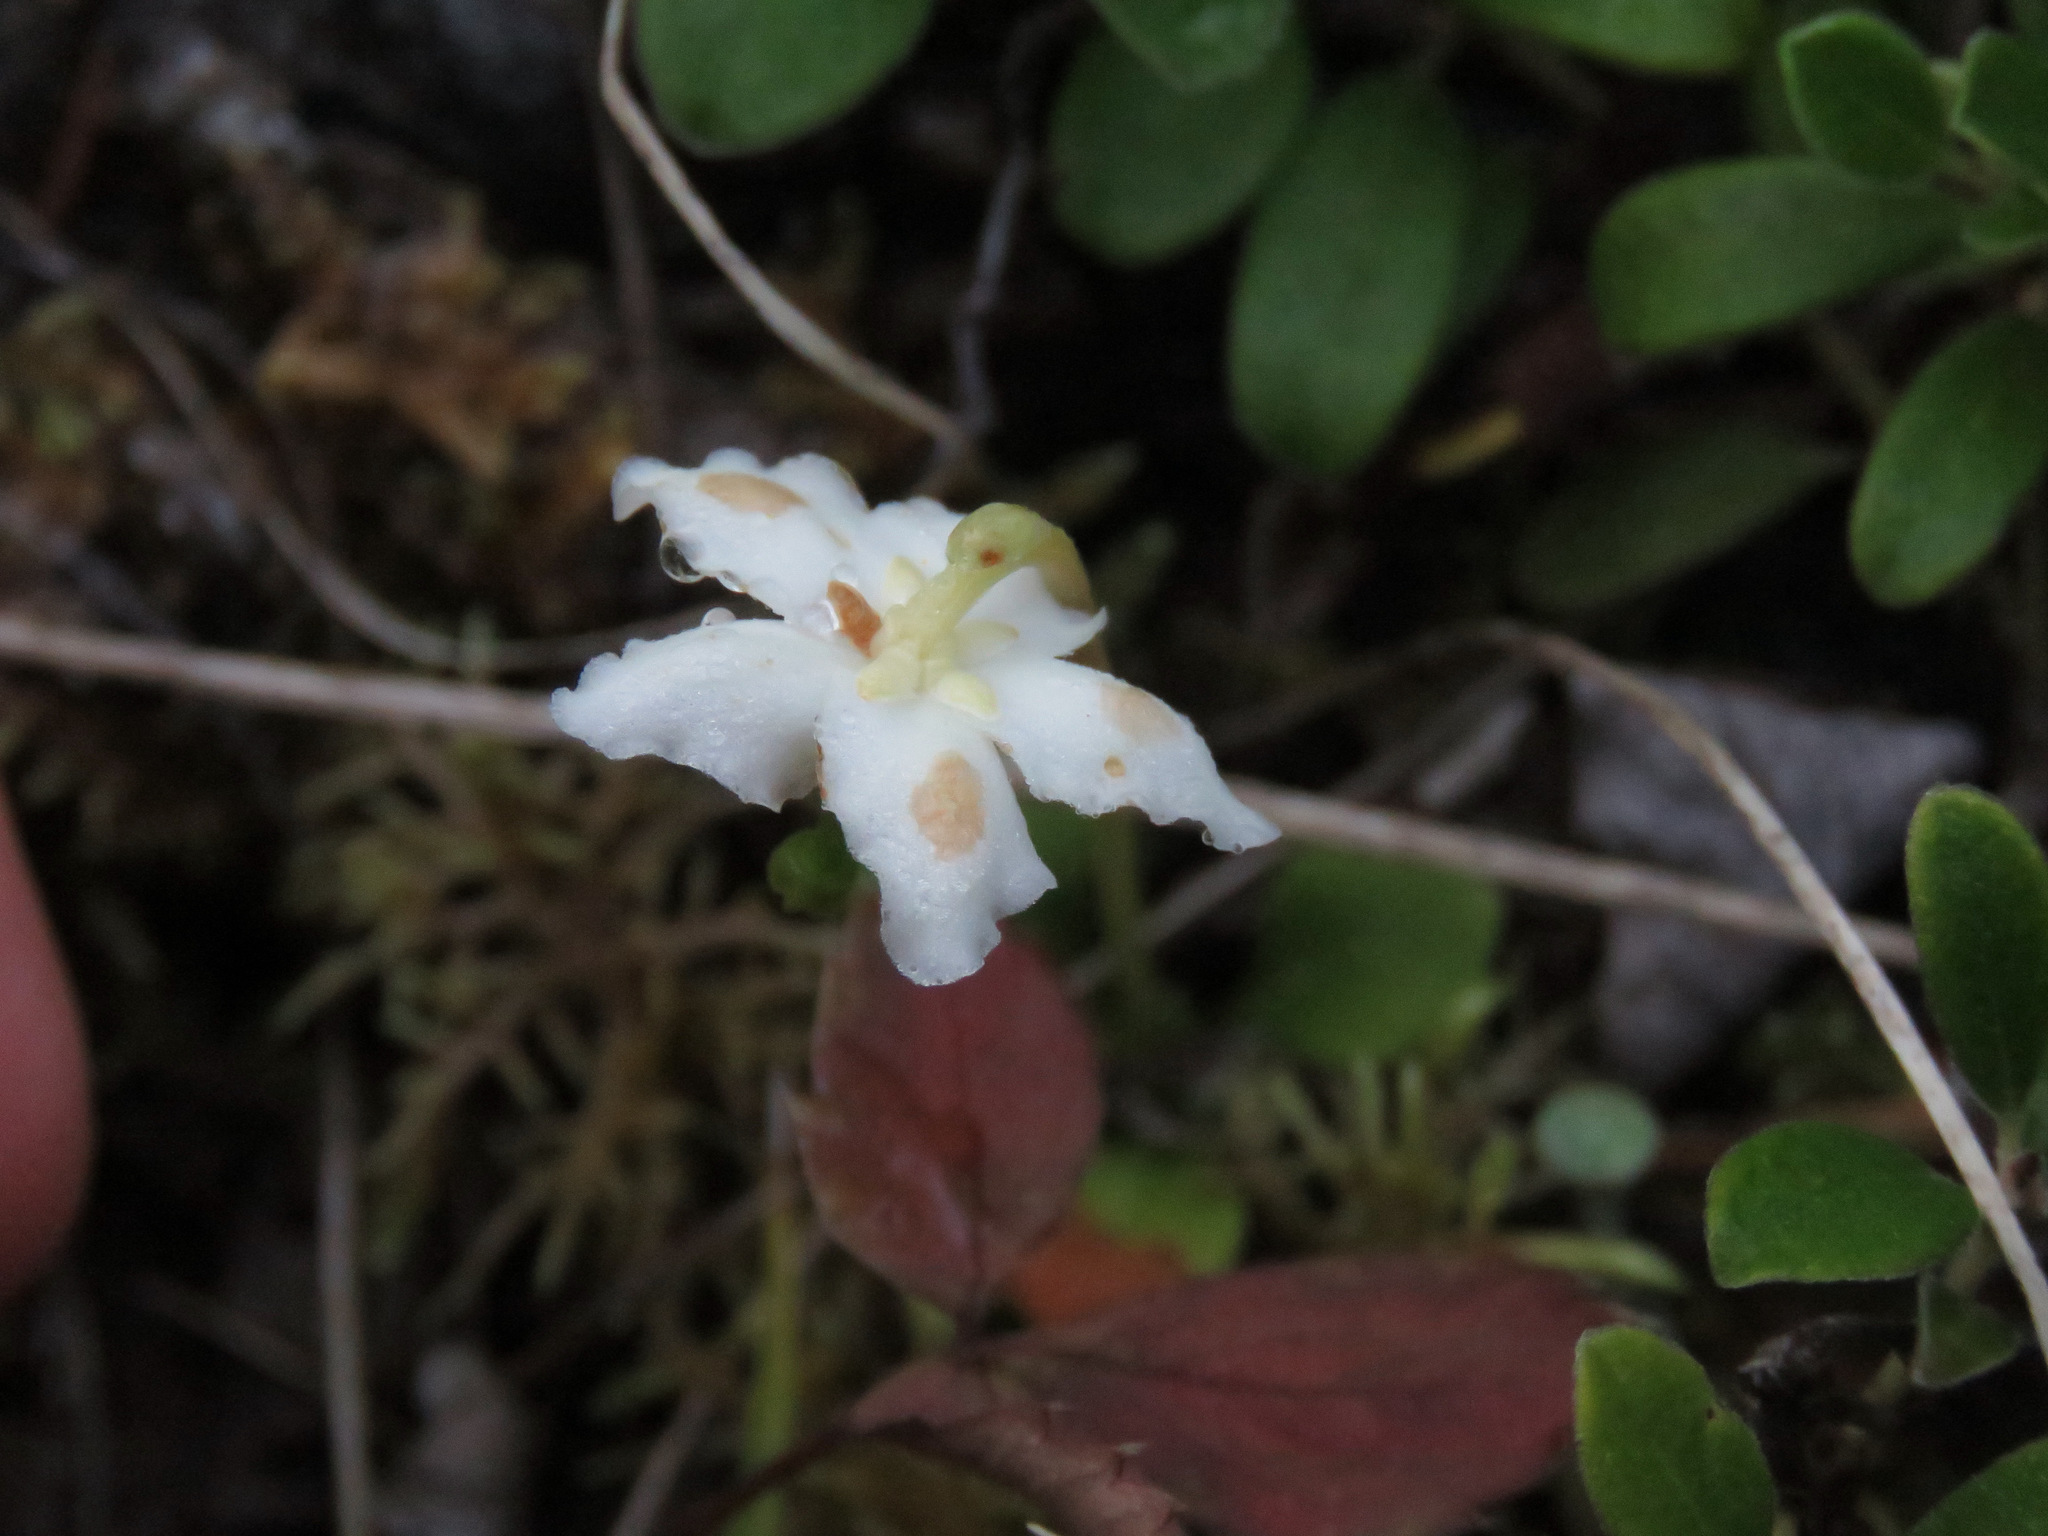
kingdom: Plantae
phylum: Tracheophyta
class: Magnoliopsida
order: Ericales
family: Ericaceae
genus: Moneses
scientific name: Moneses uniflora
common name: One-flowered wintergreen
